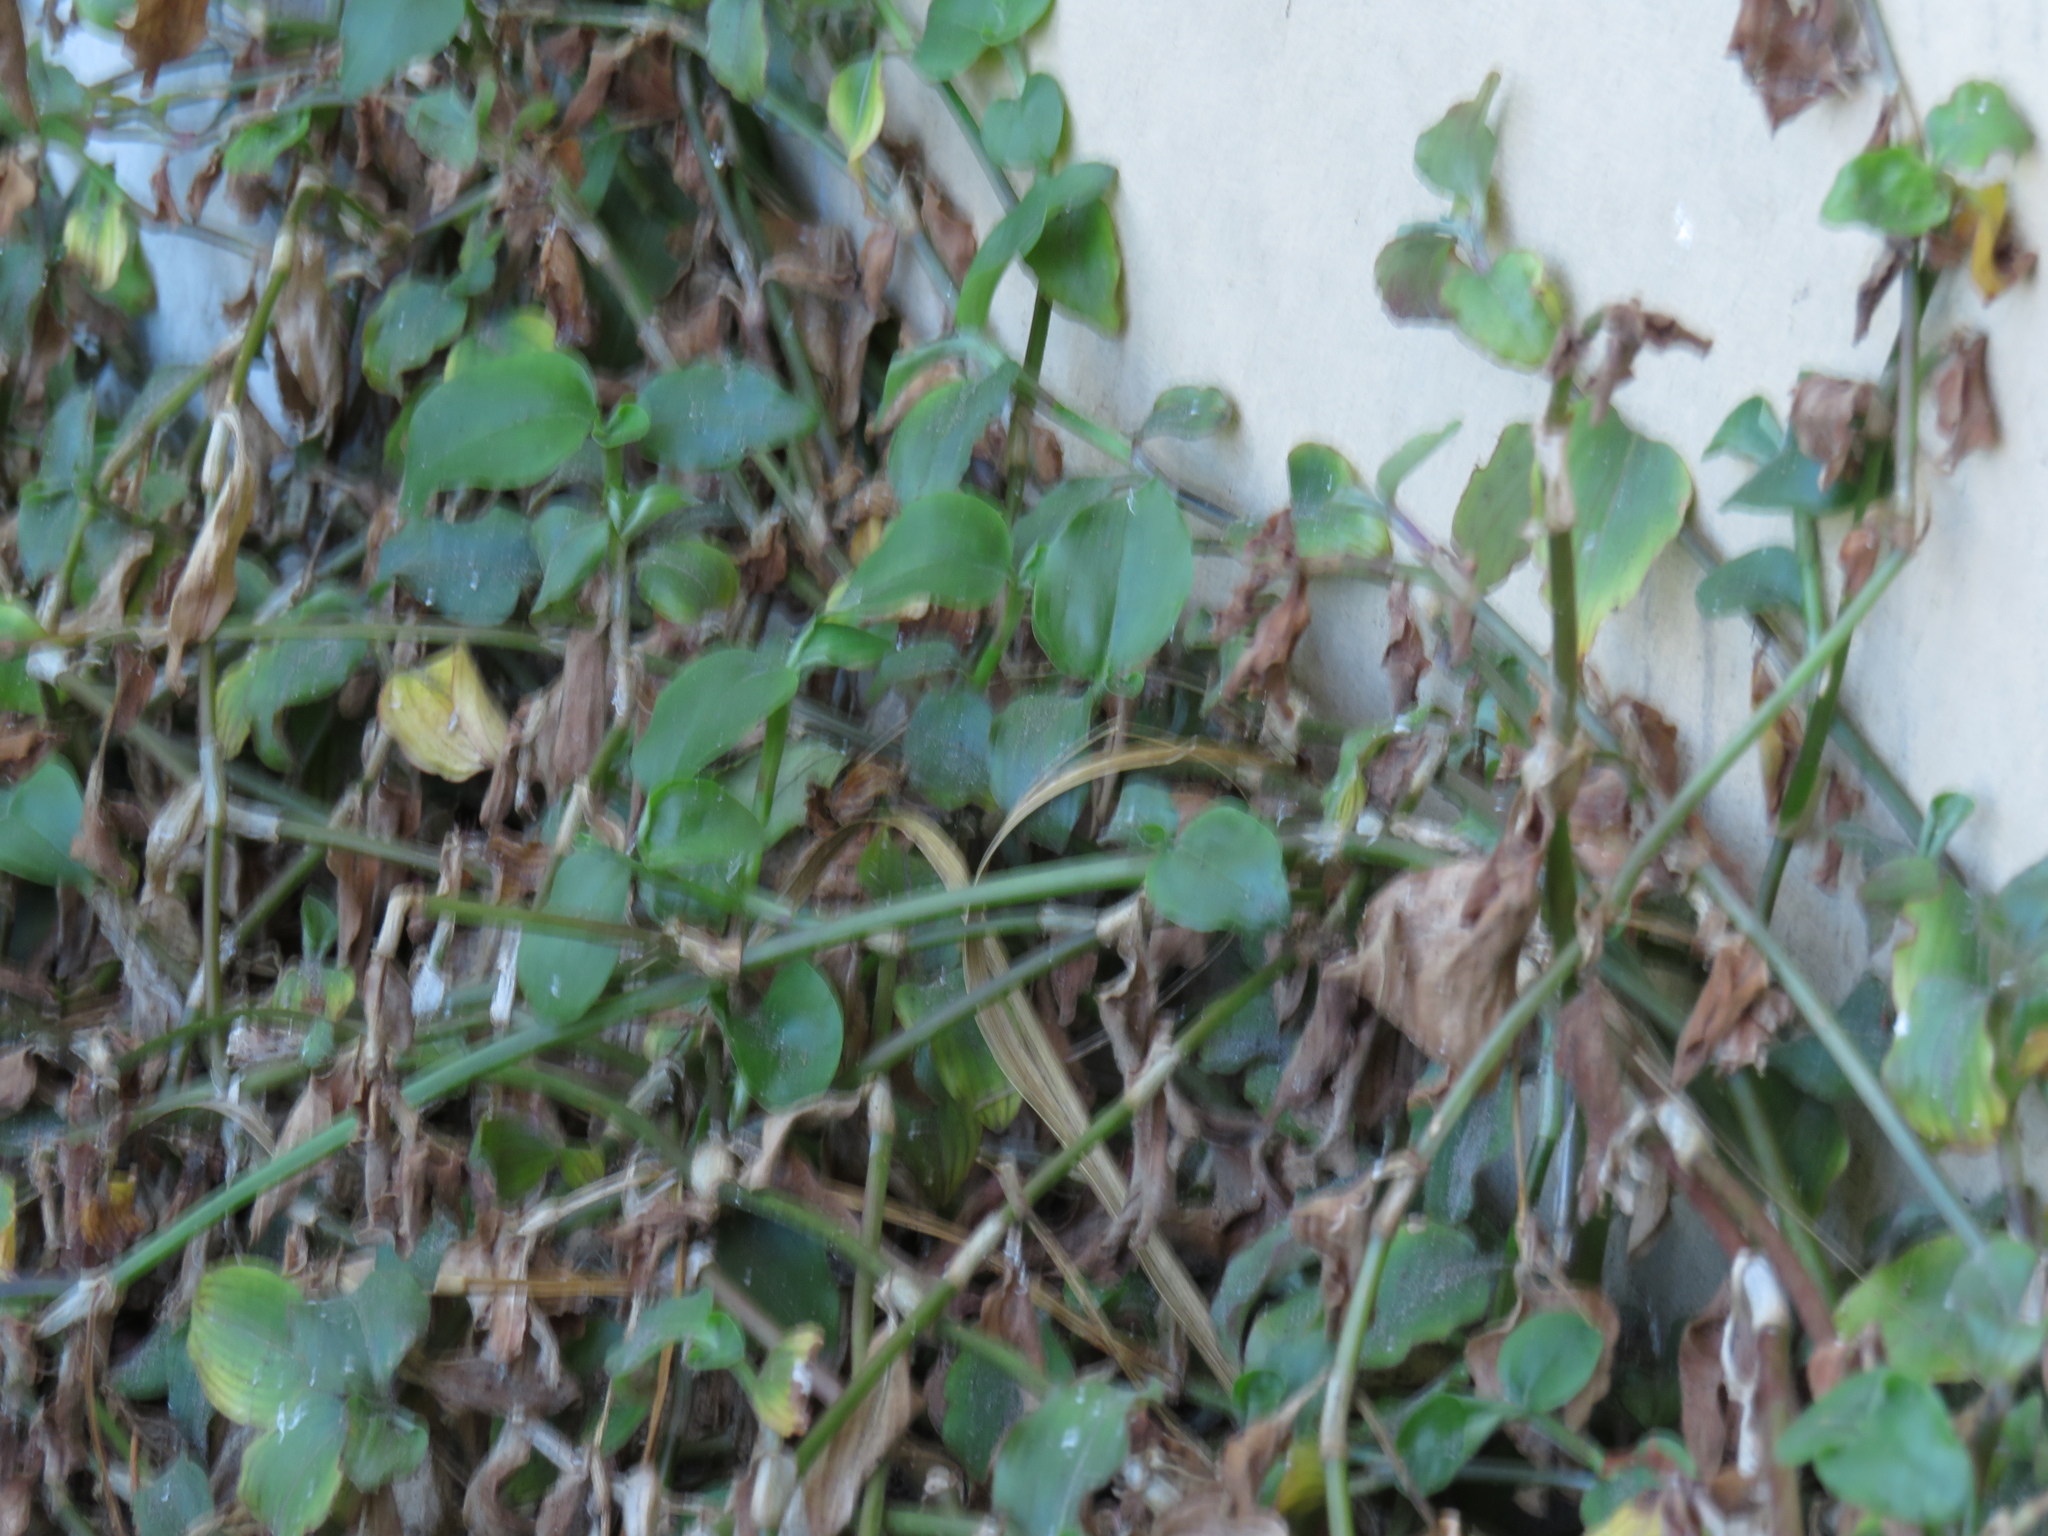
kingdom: Plantae
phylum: Tracheophyta
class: Liliopsida
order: Commelinales
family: Commelinaceae
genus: Commelina
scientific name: Commelina benghalensis
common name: Jio
